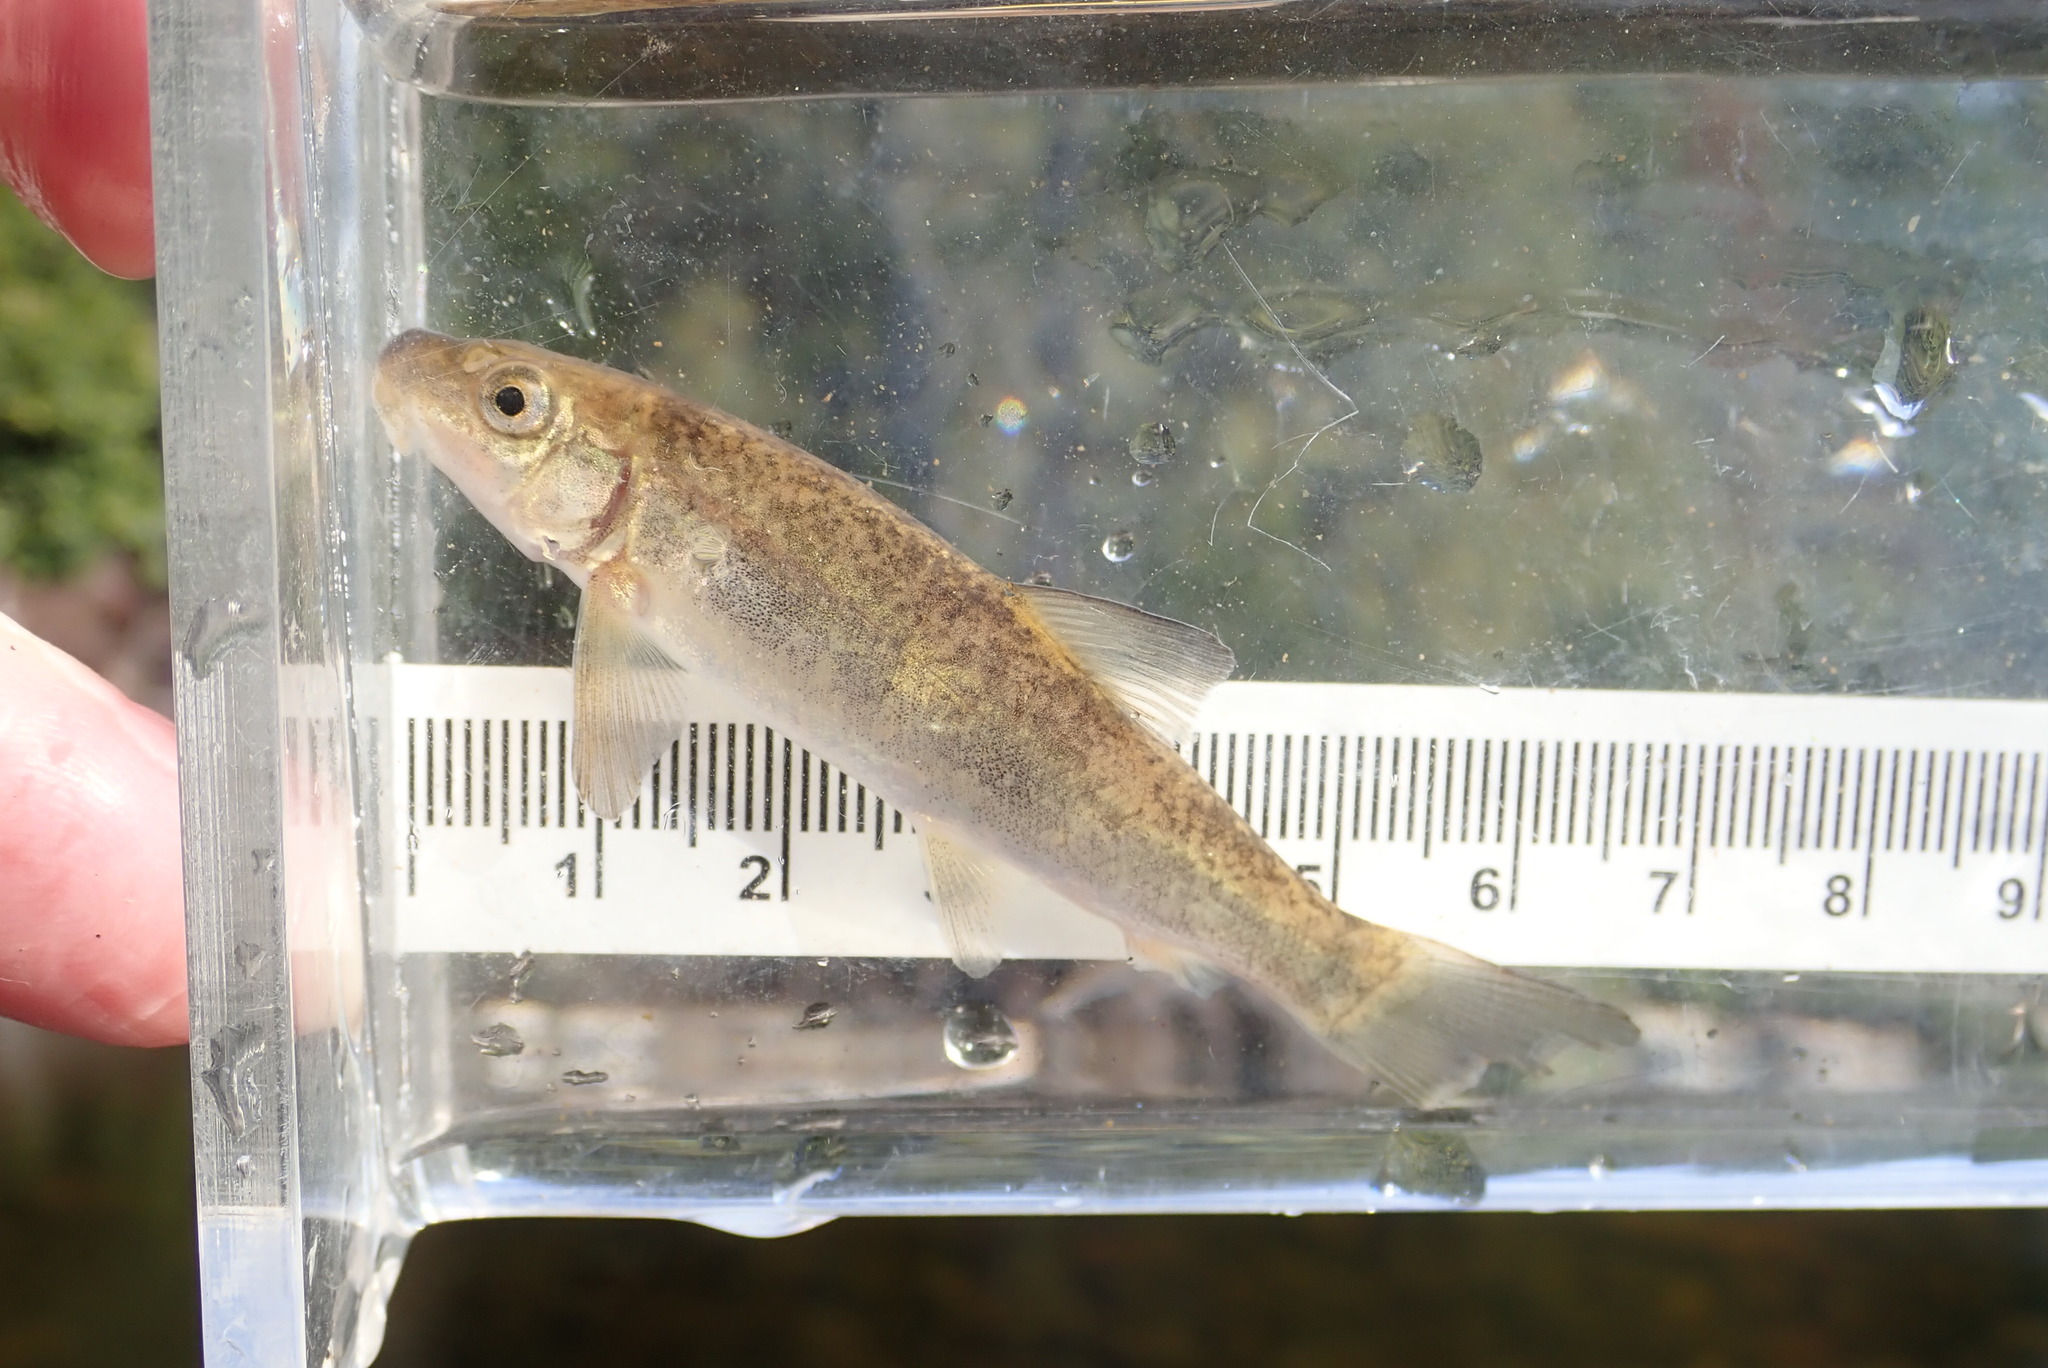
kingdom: Animalia
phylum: Chordata
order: Cypriniformes
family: Catostomidae
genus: Catostomus
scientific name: Catostomus catostomus
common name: Longnose sucker
